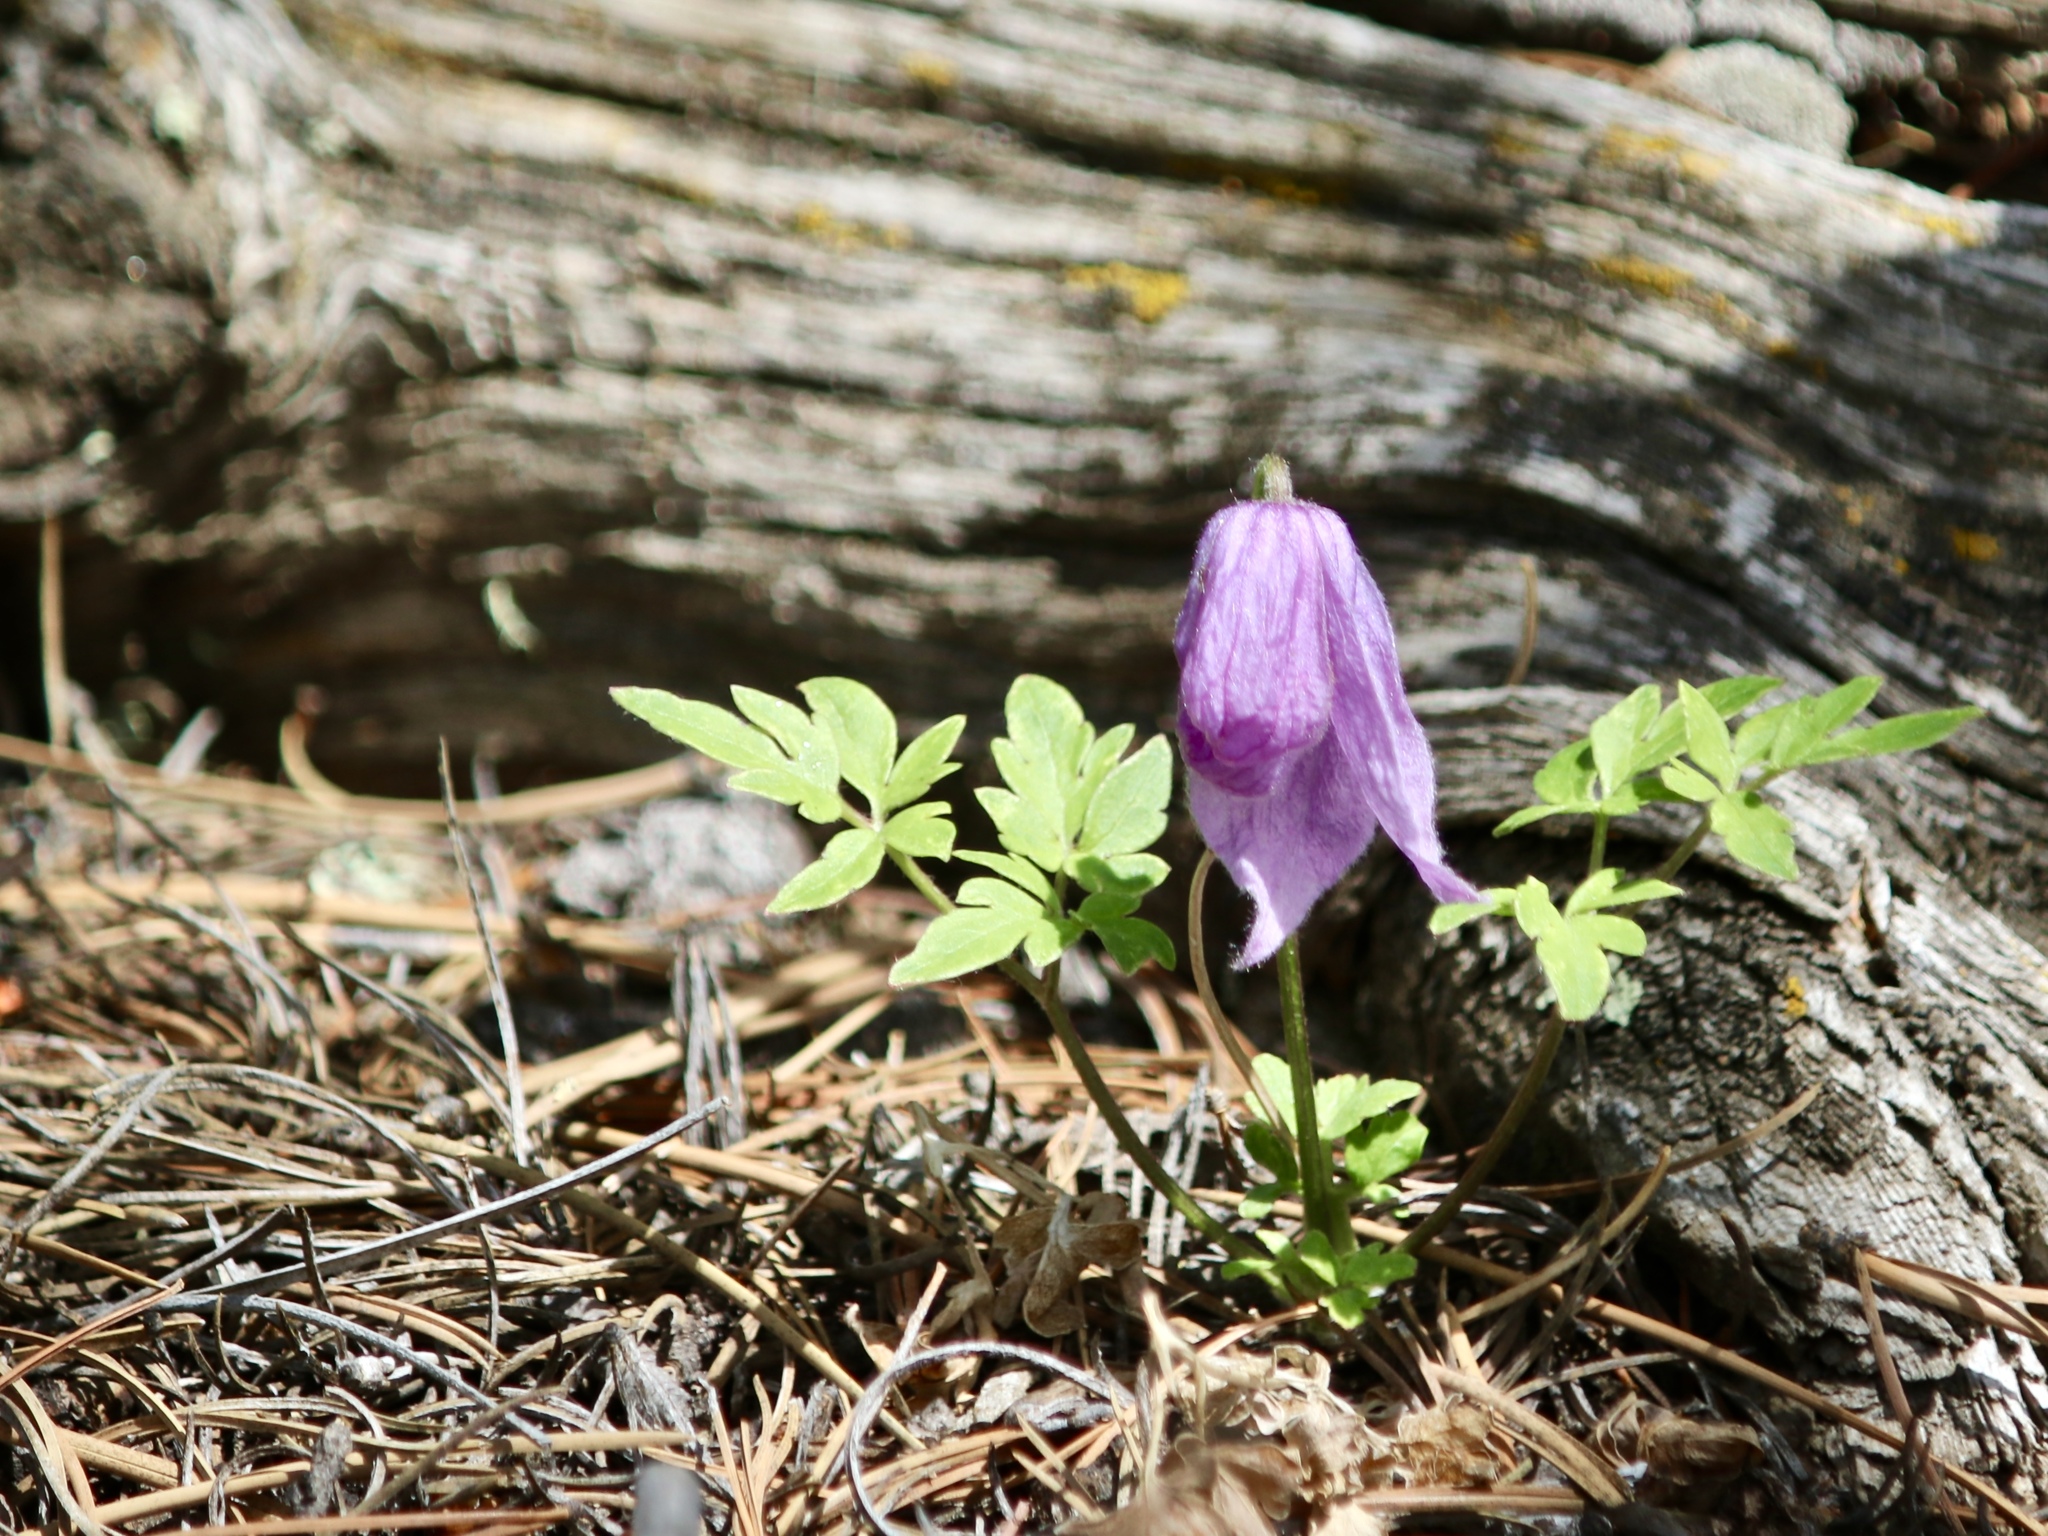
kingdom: Plantae
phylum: Tracheophyta
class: Magnoliopsida
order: Ranunculales
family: Ranunculaceae
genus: Clematis
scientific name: Clematis columbiana
